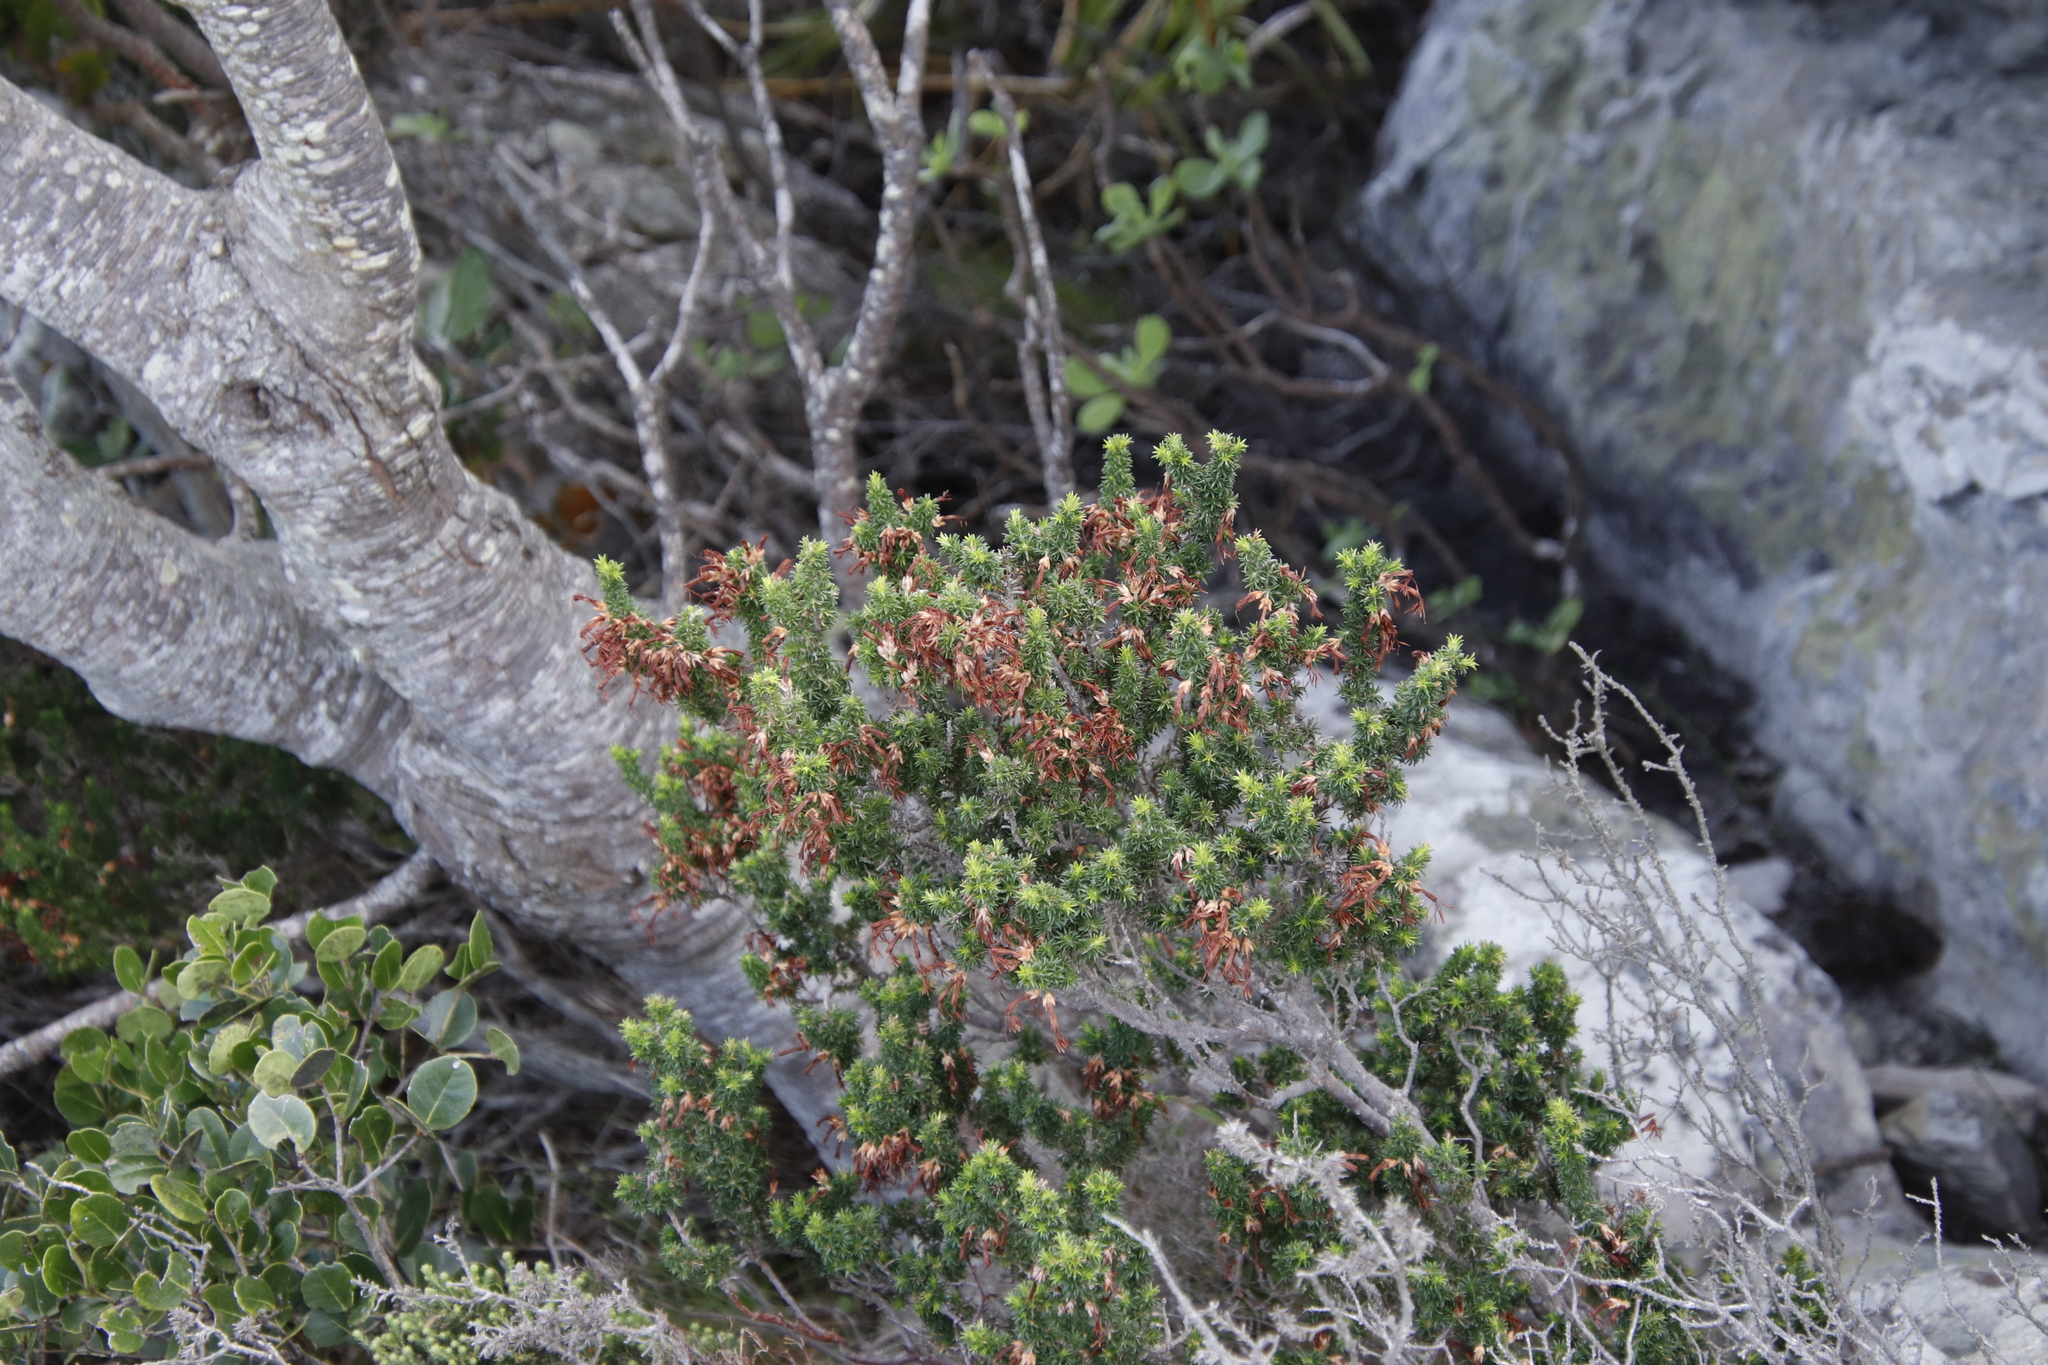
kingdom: Plantae
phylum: Tracheophyta
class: Magnoliopsida
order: Ericales
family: Ericaceae
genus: Erica
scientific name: Erica coccinea
